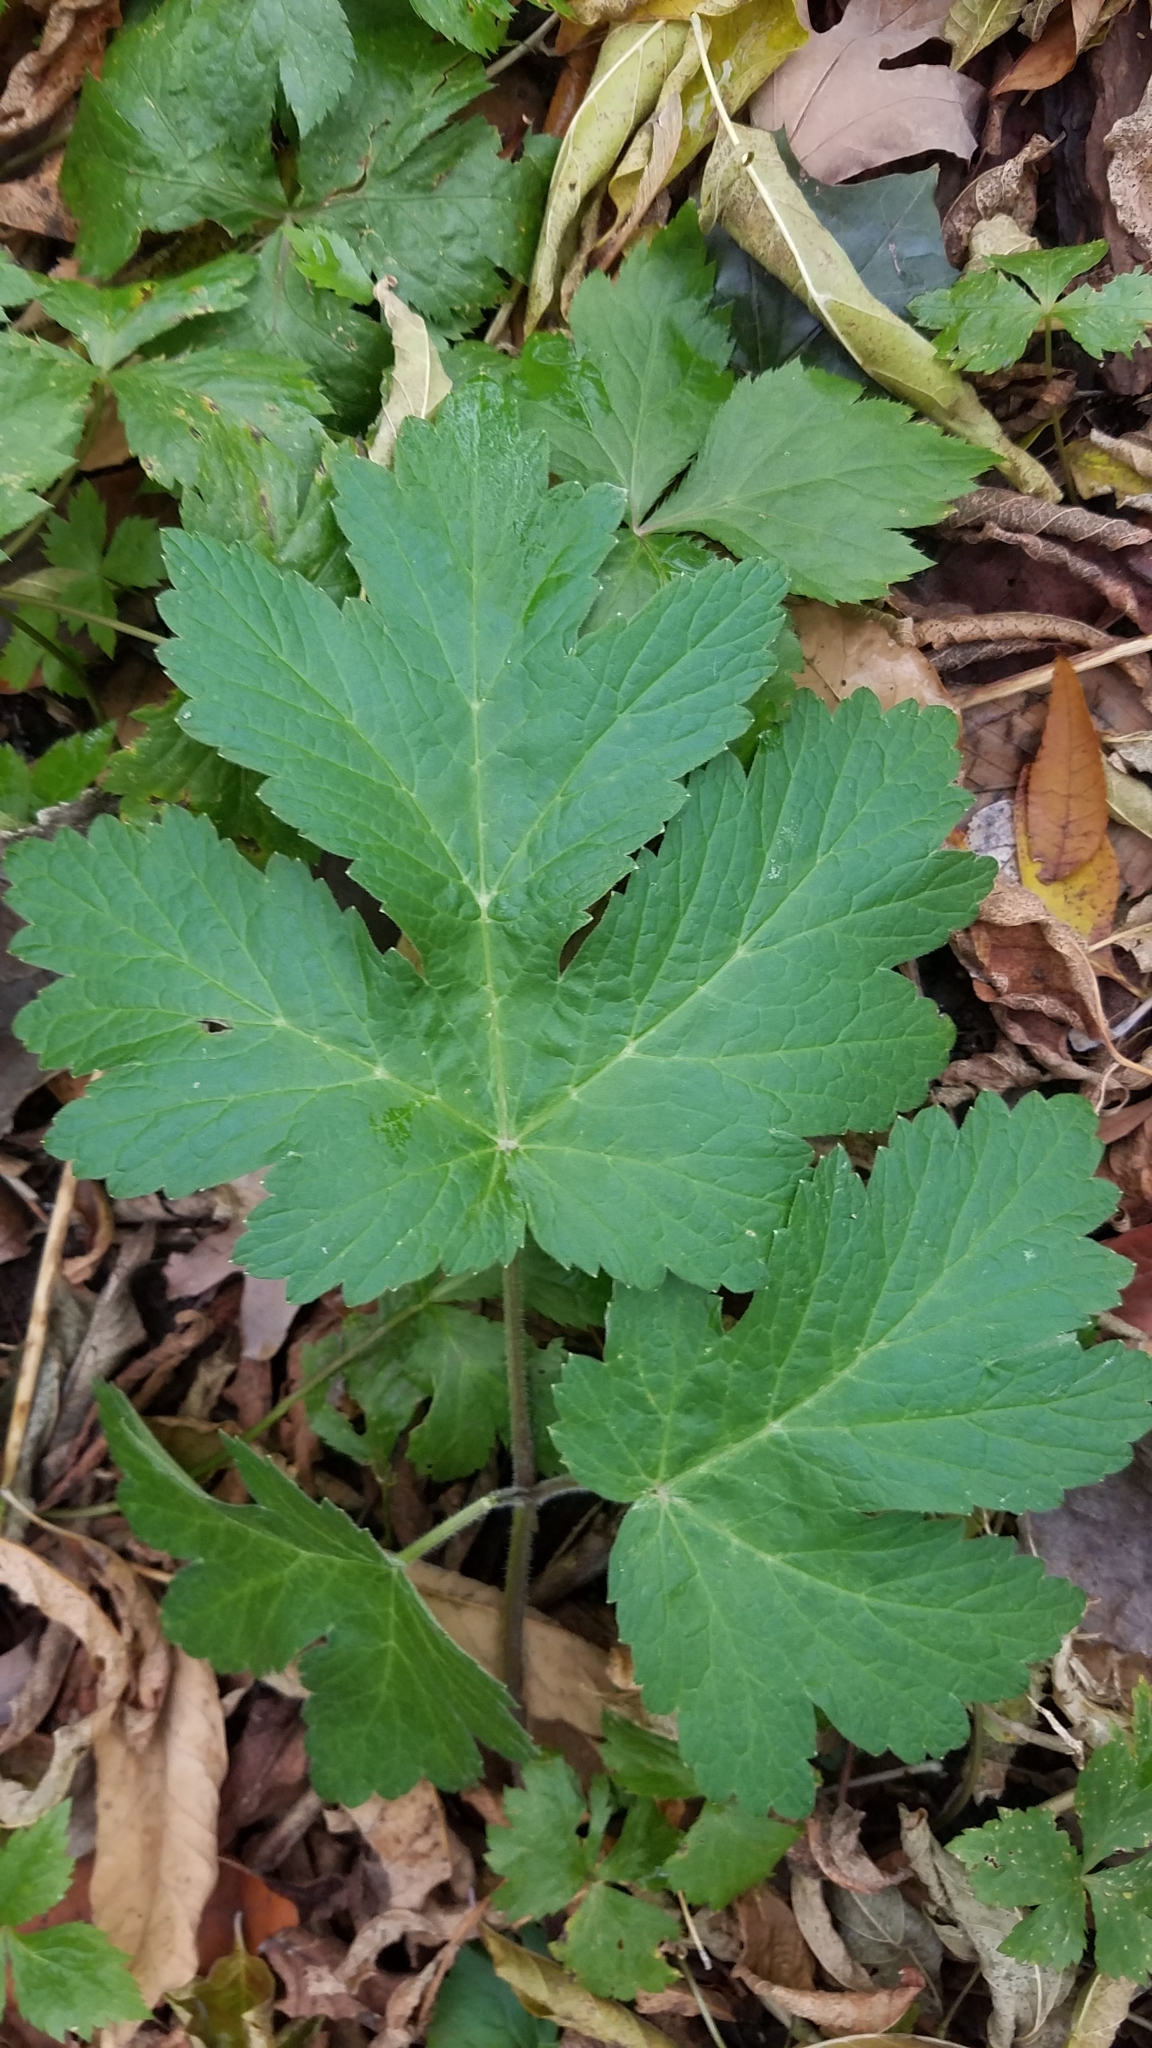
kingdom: Plantae
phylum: Tracheophyta
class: Magnoliopsida
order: Apiales
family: Apiaceae
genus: Heracleum
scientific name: Heracleum maximum
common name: American cow parsnip
